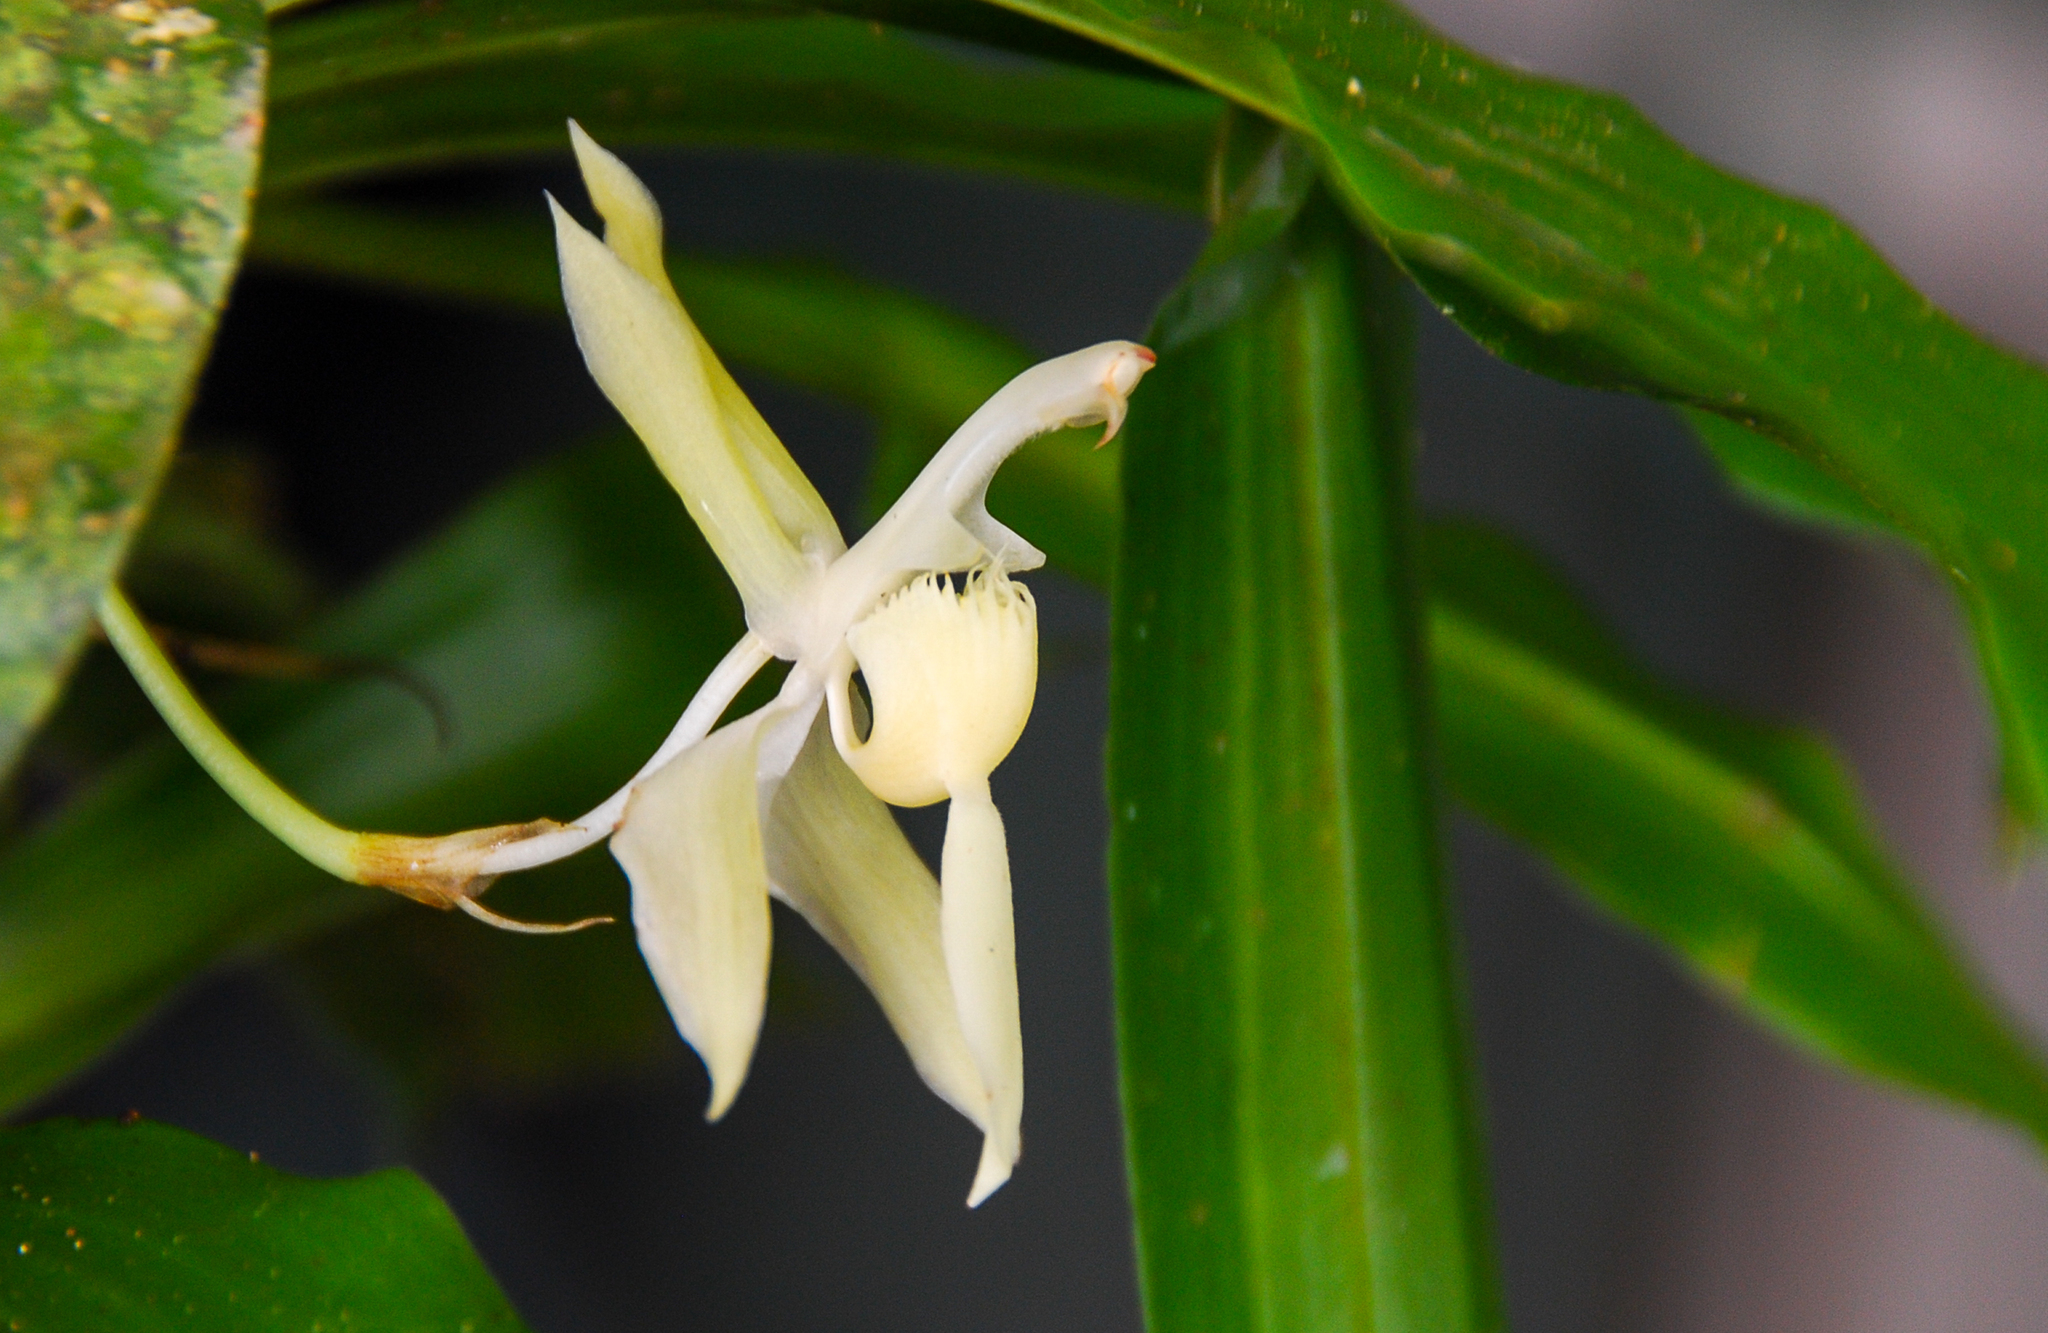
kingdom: Plantae
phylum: Tracheophyta
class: Liliopsida
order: Asparagales
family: Orchidaceae
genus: Chaubardia
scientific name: Chaubardia klugii
